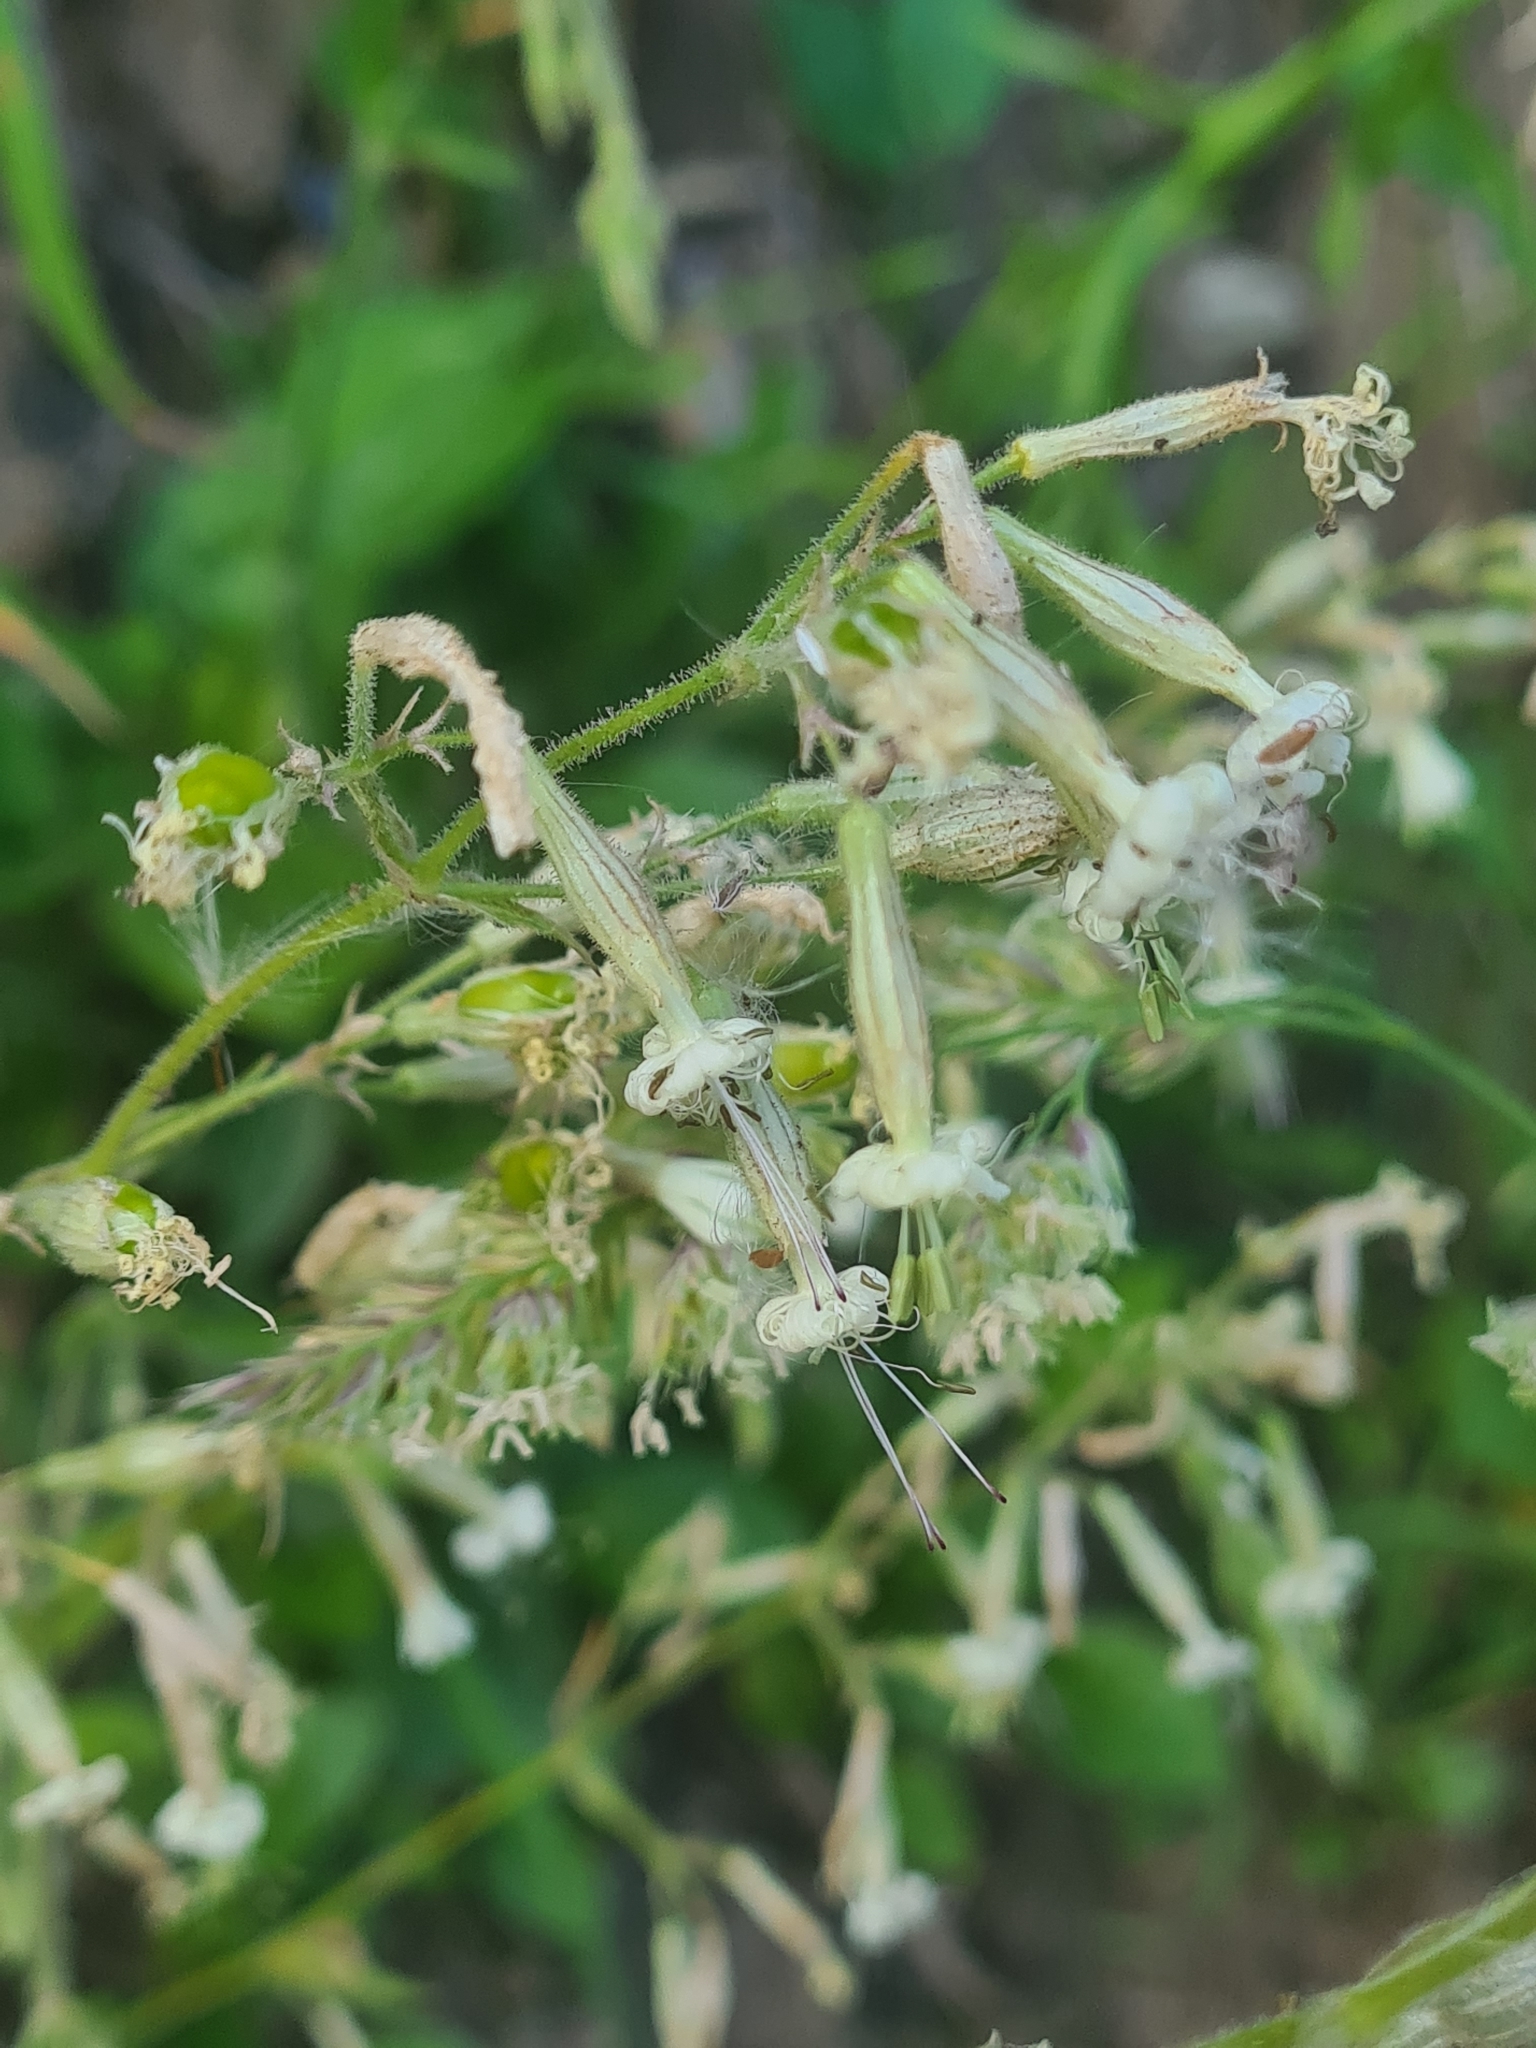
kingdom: Plantae
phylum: Tracheophyta
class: Magnoliopsida
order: Caryophyllales
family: Caryophyllaceae
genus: Silene
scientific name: Silene nutans
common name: Nottingham catchfly
